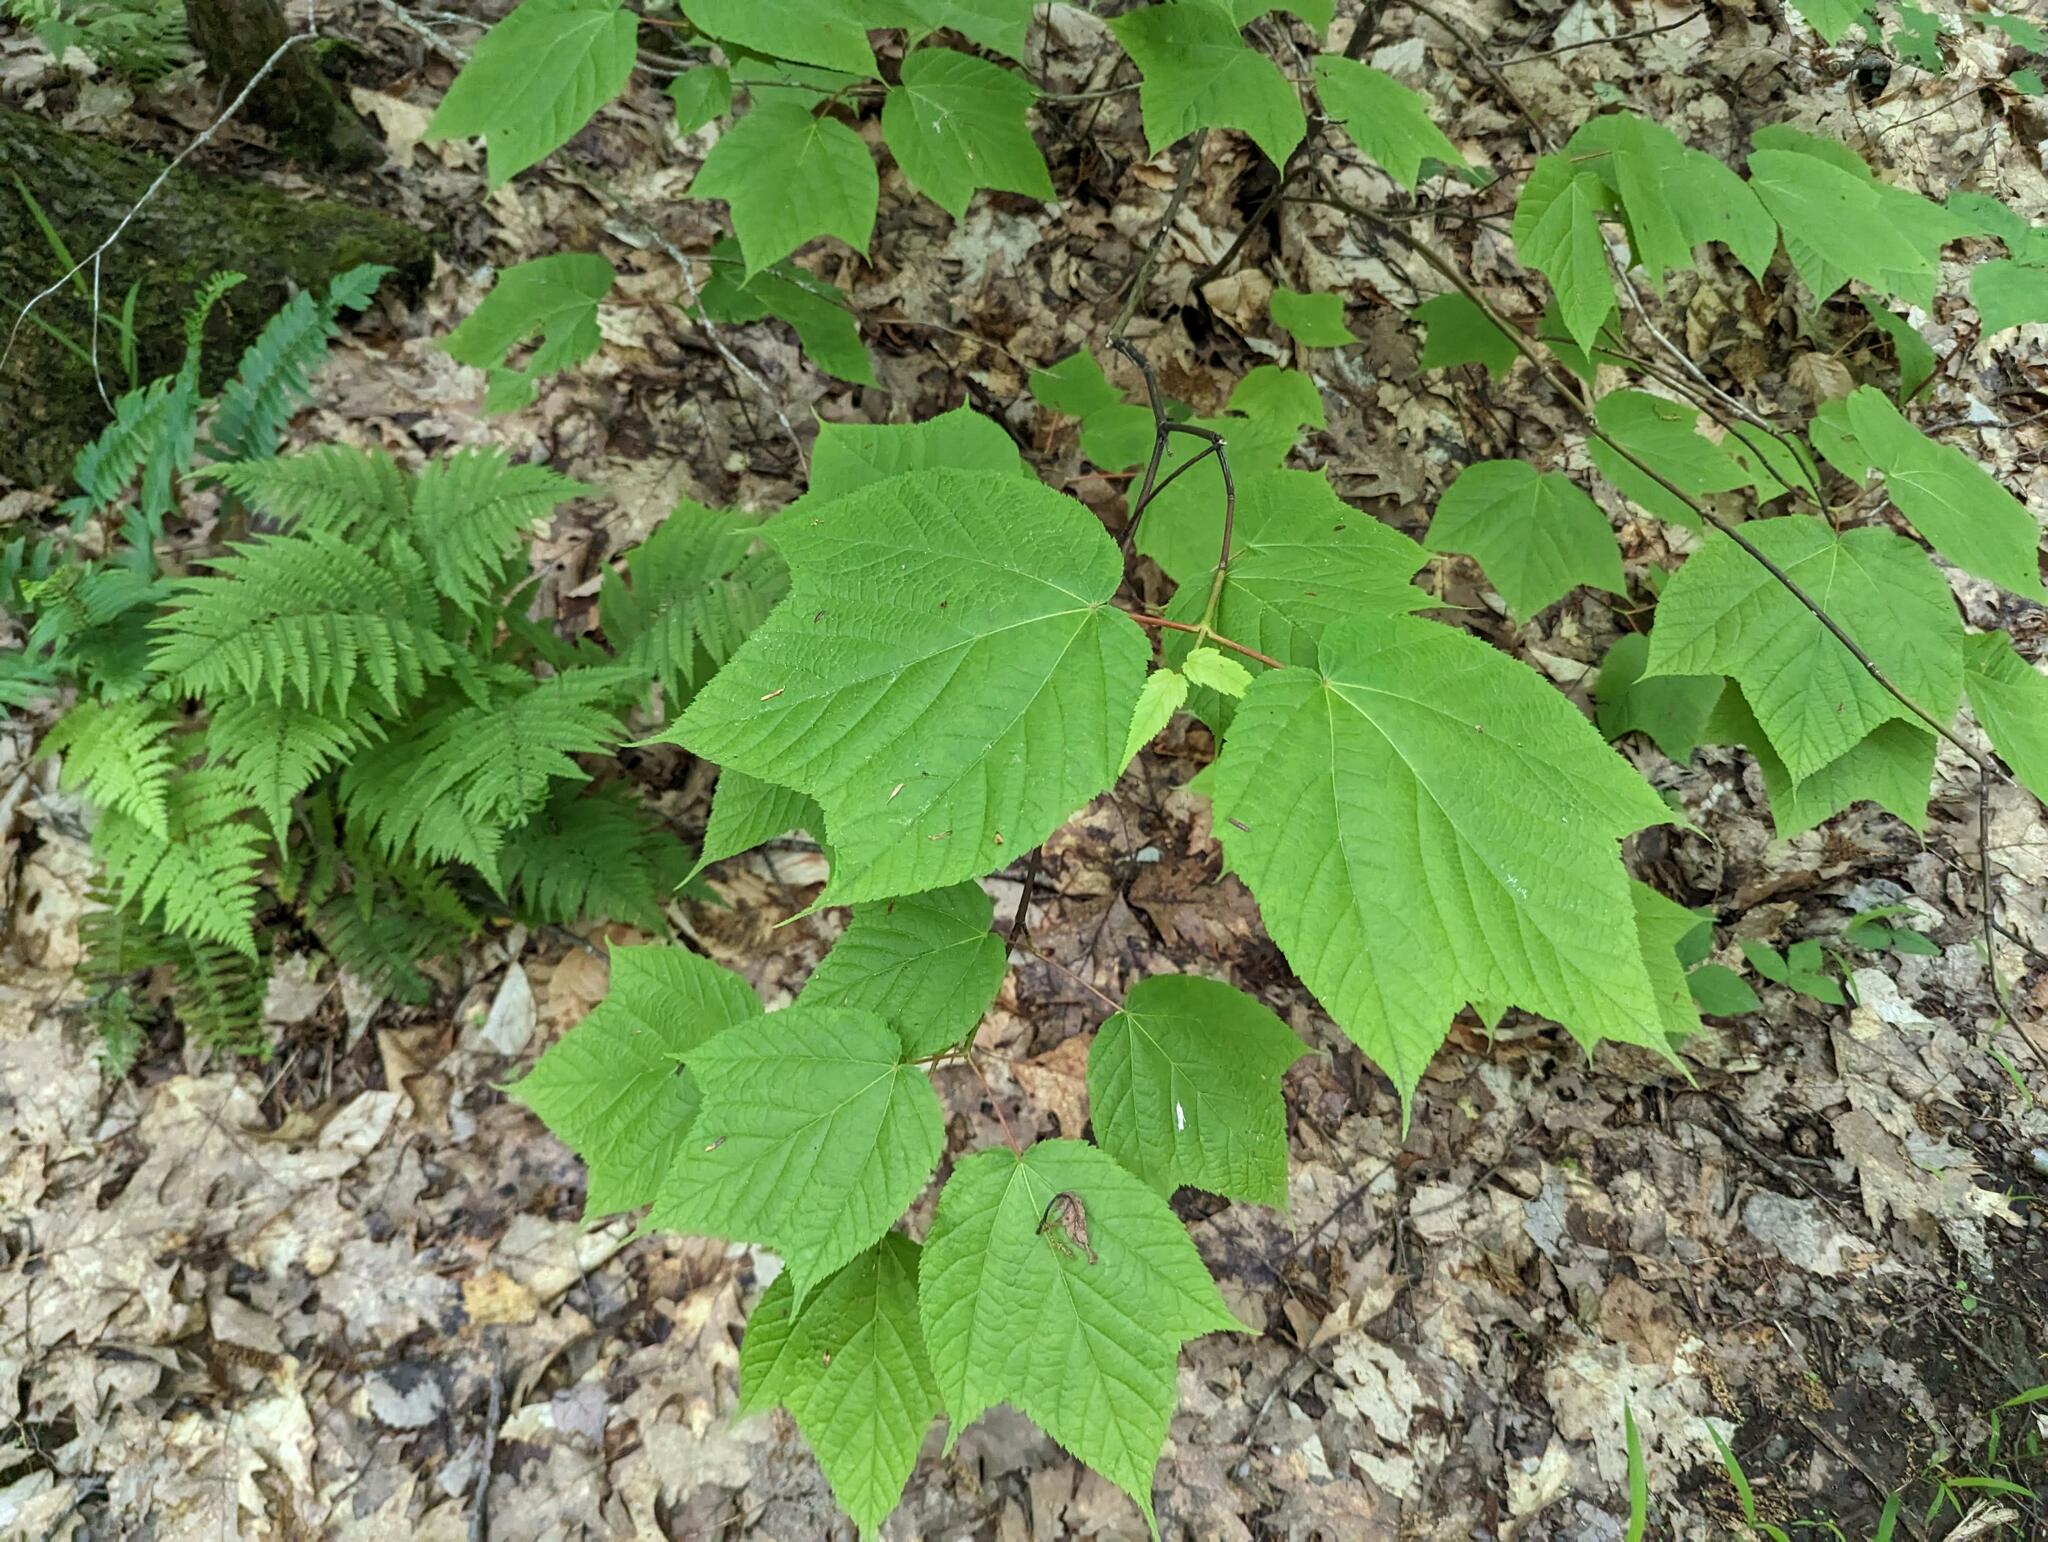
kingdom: Plantae
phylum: Tracheophyta
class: Magnoliopsida
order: Sapindales
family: Sapindaceae
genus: Acer
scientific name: Acer pensylvanicum
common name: Moosewood
